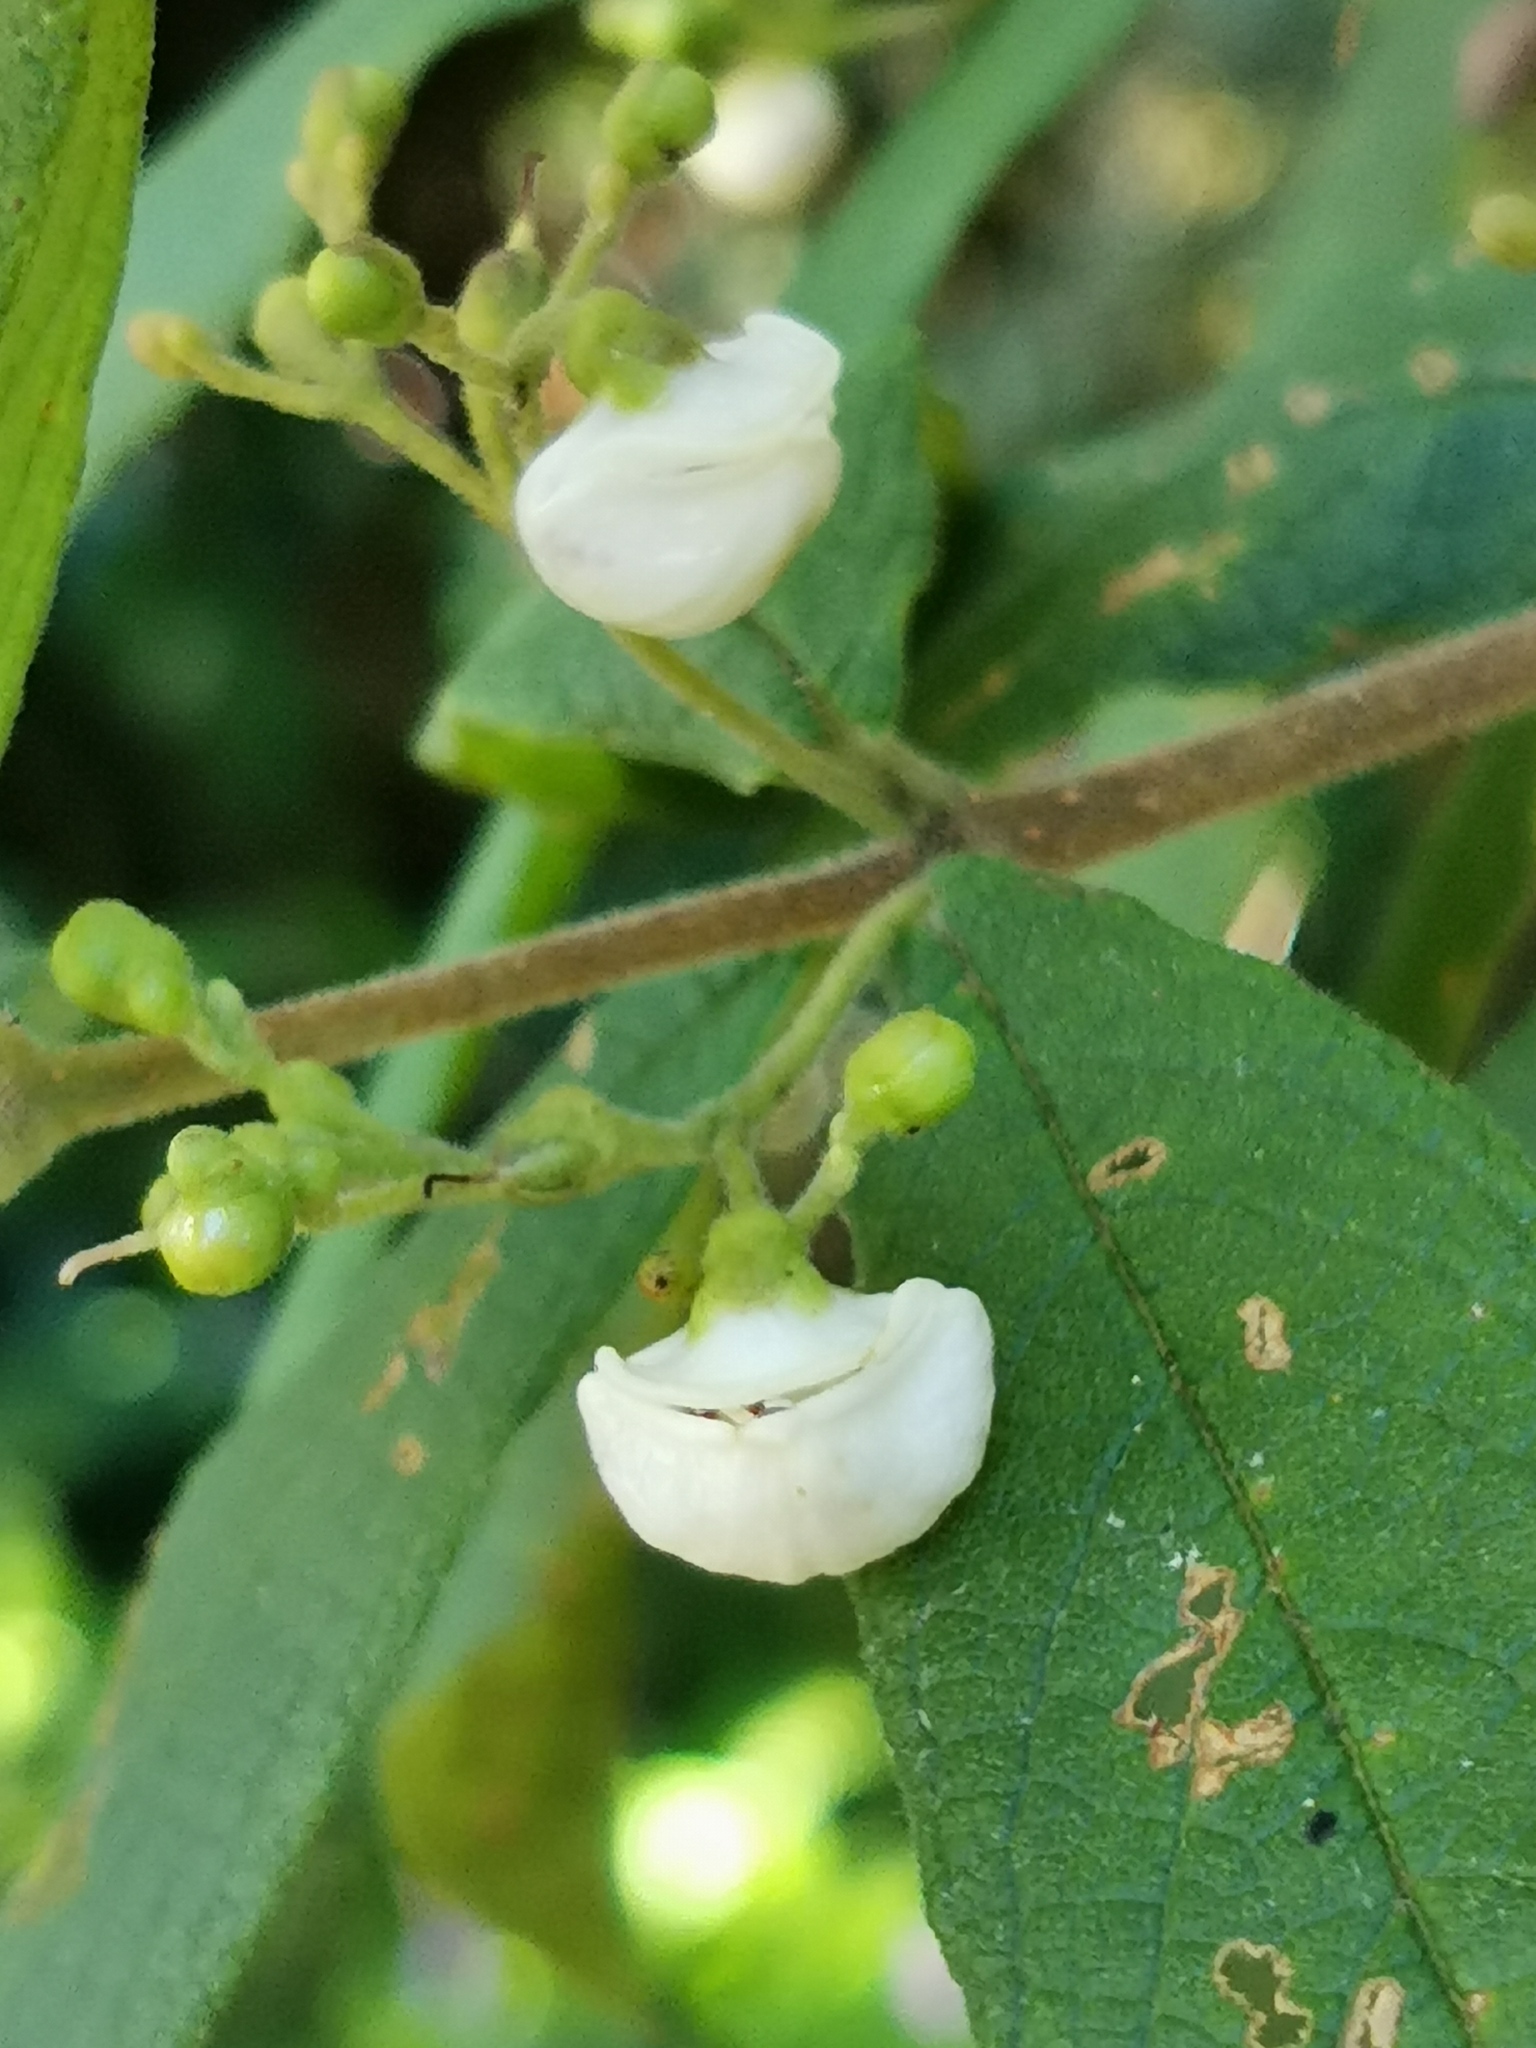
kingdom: Plantae
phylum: Tracheophyta
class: Magnoliopsida
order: Lamiales
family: Stilbaceae
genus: Bowkeria
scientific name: Bowkeria cymosa
